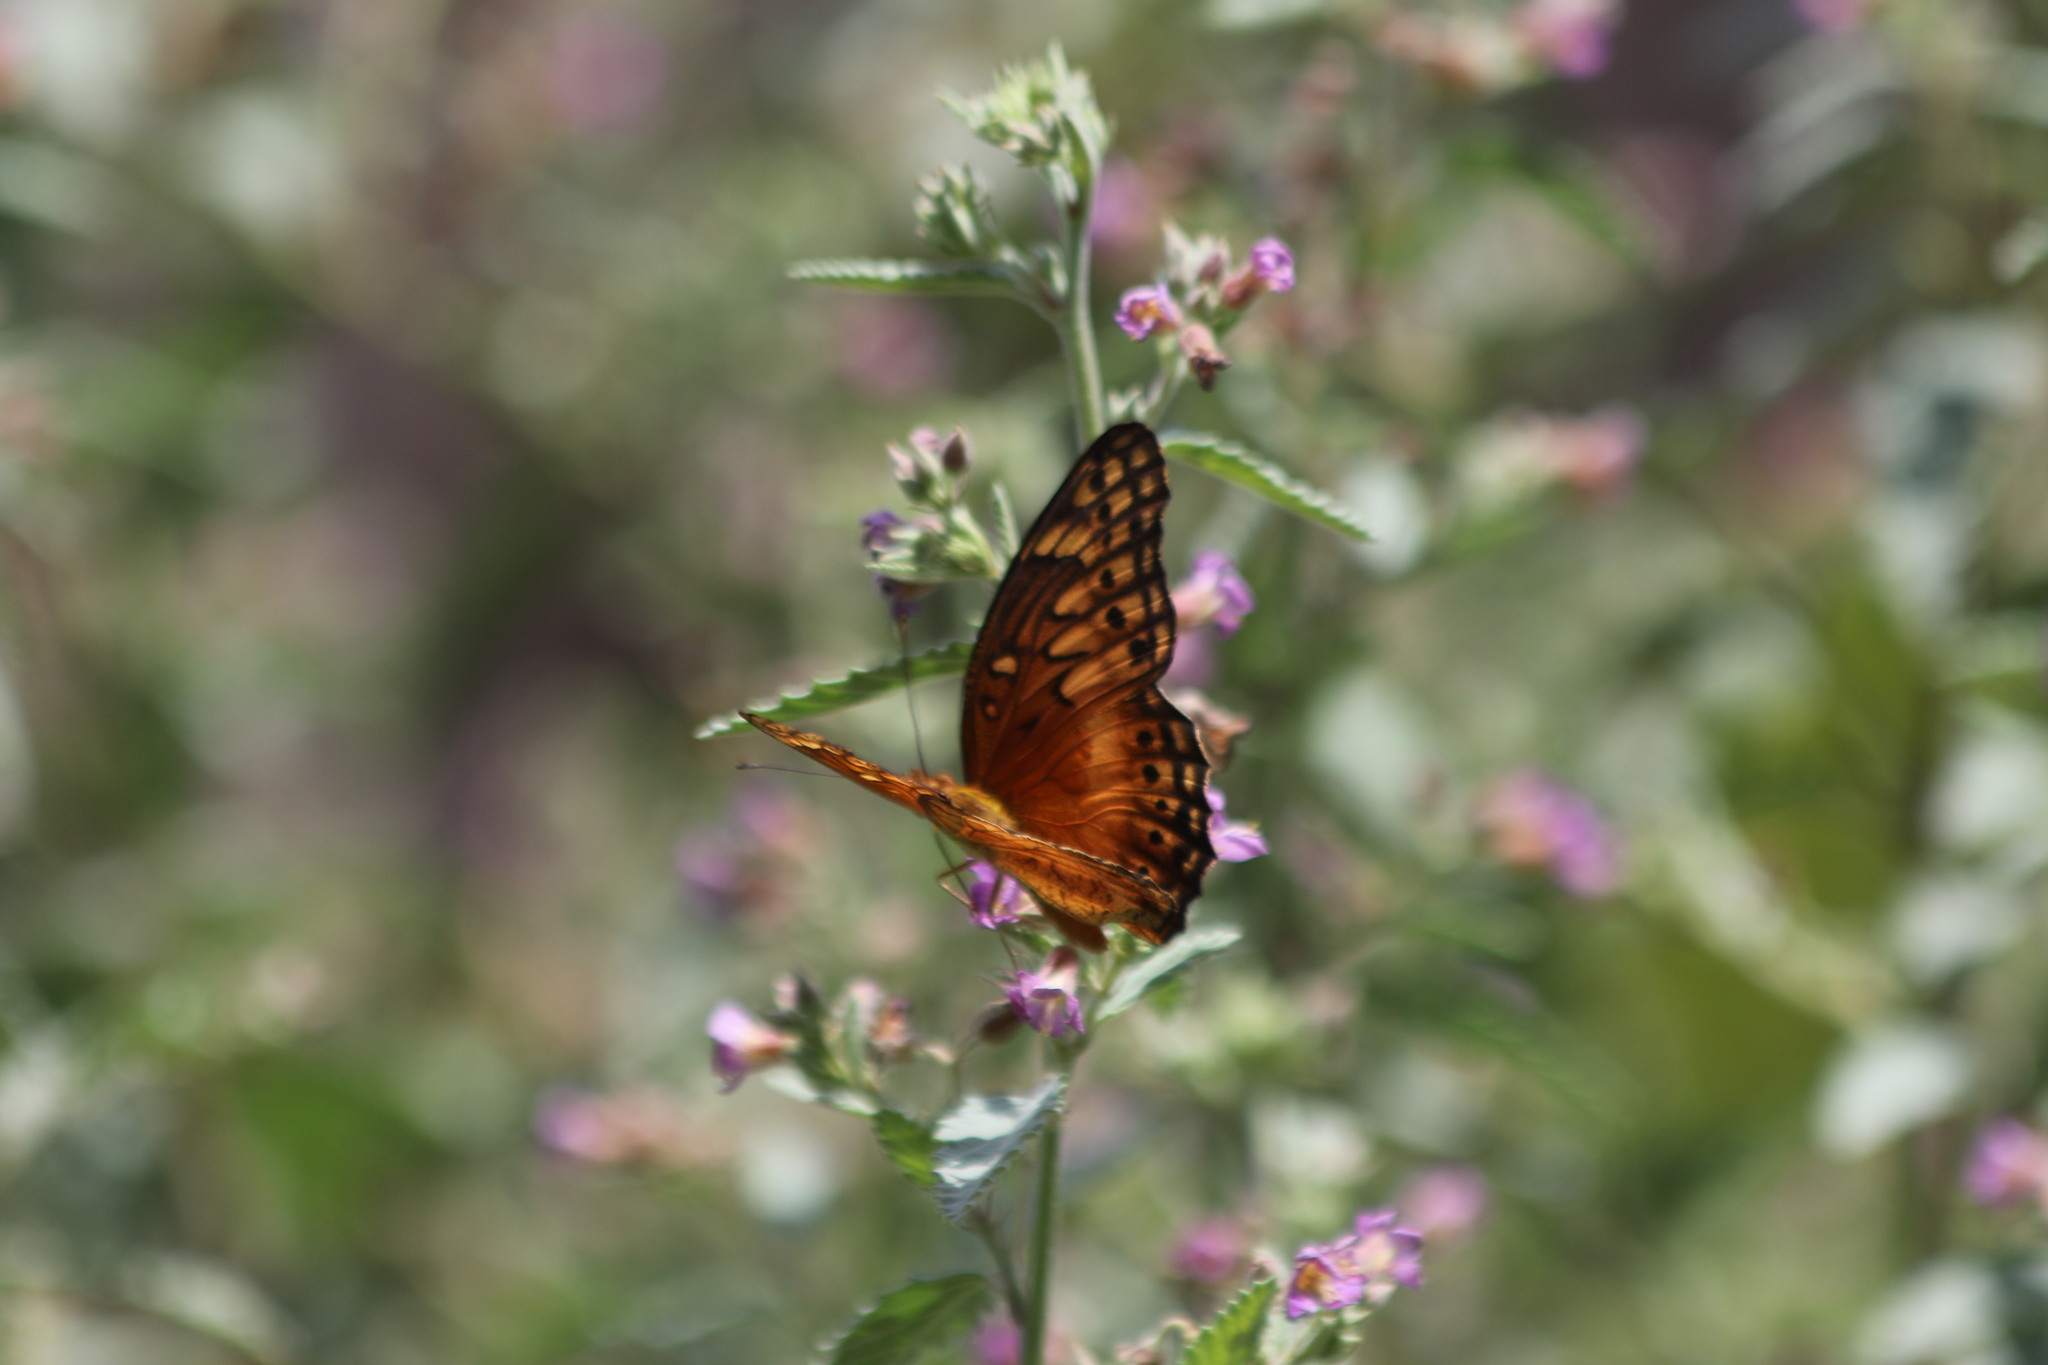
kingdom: Animalia
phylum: Arthropoda
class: Insecta
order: Lepidoptera
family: Nymphalidae
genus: Euptoieta
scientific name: Euptoieta hegesia
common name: Mexican fritillary
